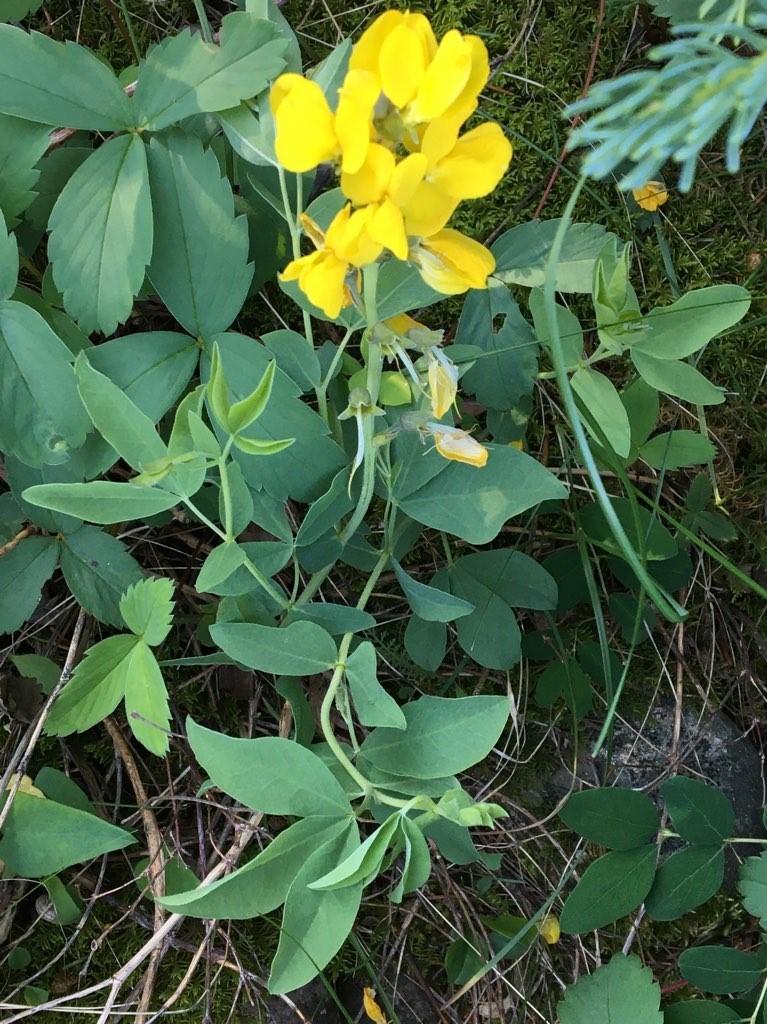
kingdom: Plantae
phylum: Tracheophyta
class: Magnoliopsida
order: Fabales
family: Fabaceae
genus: Thermopsis
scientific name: Thermopsis rhombifolia
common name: Circle-pod-pea
